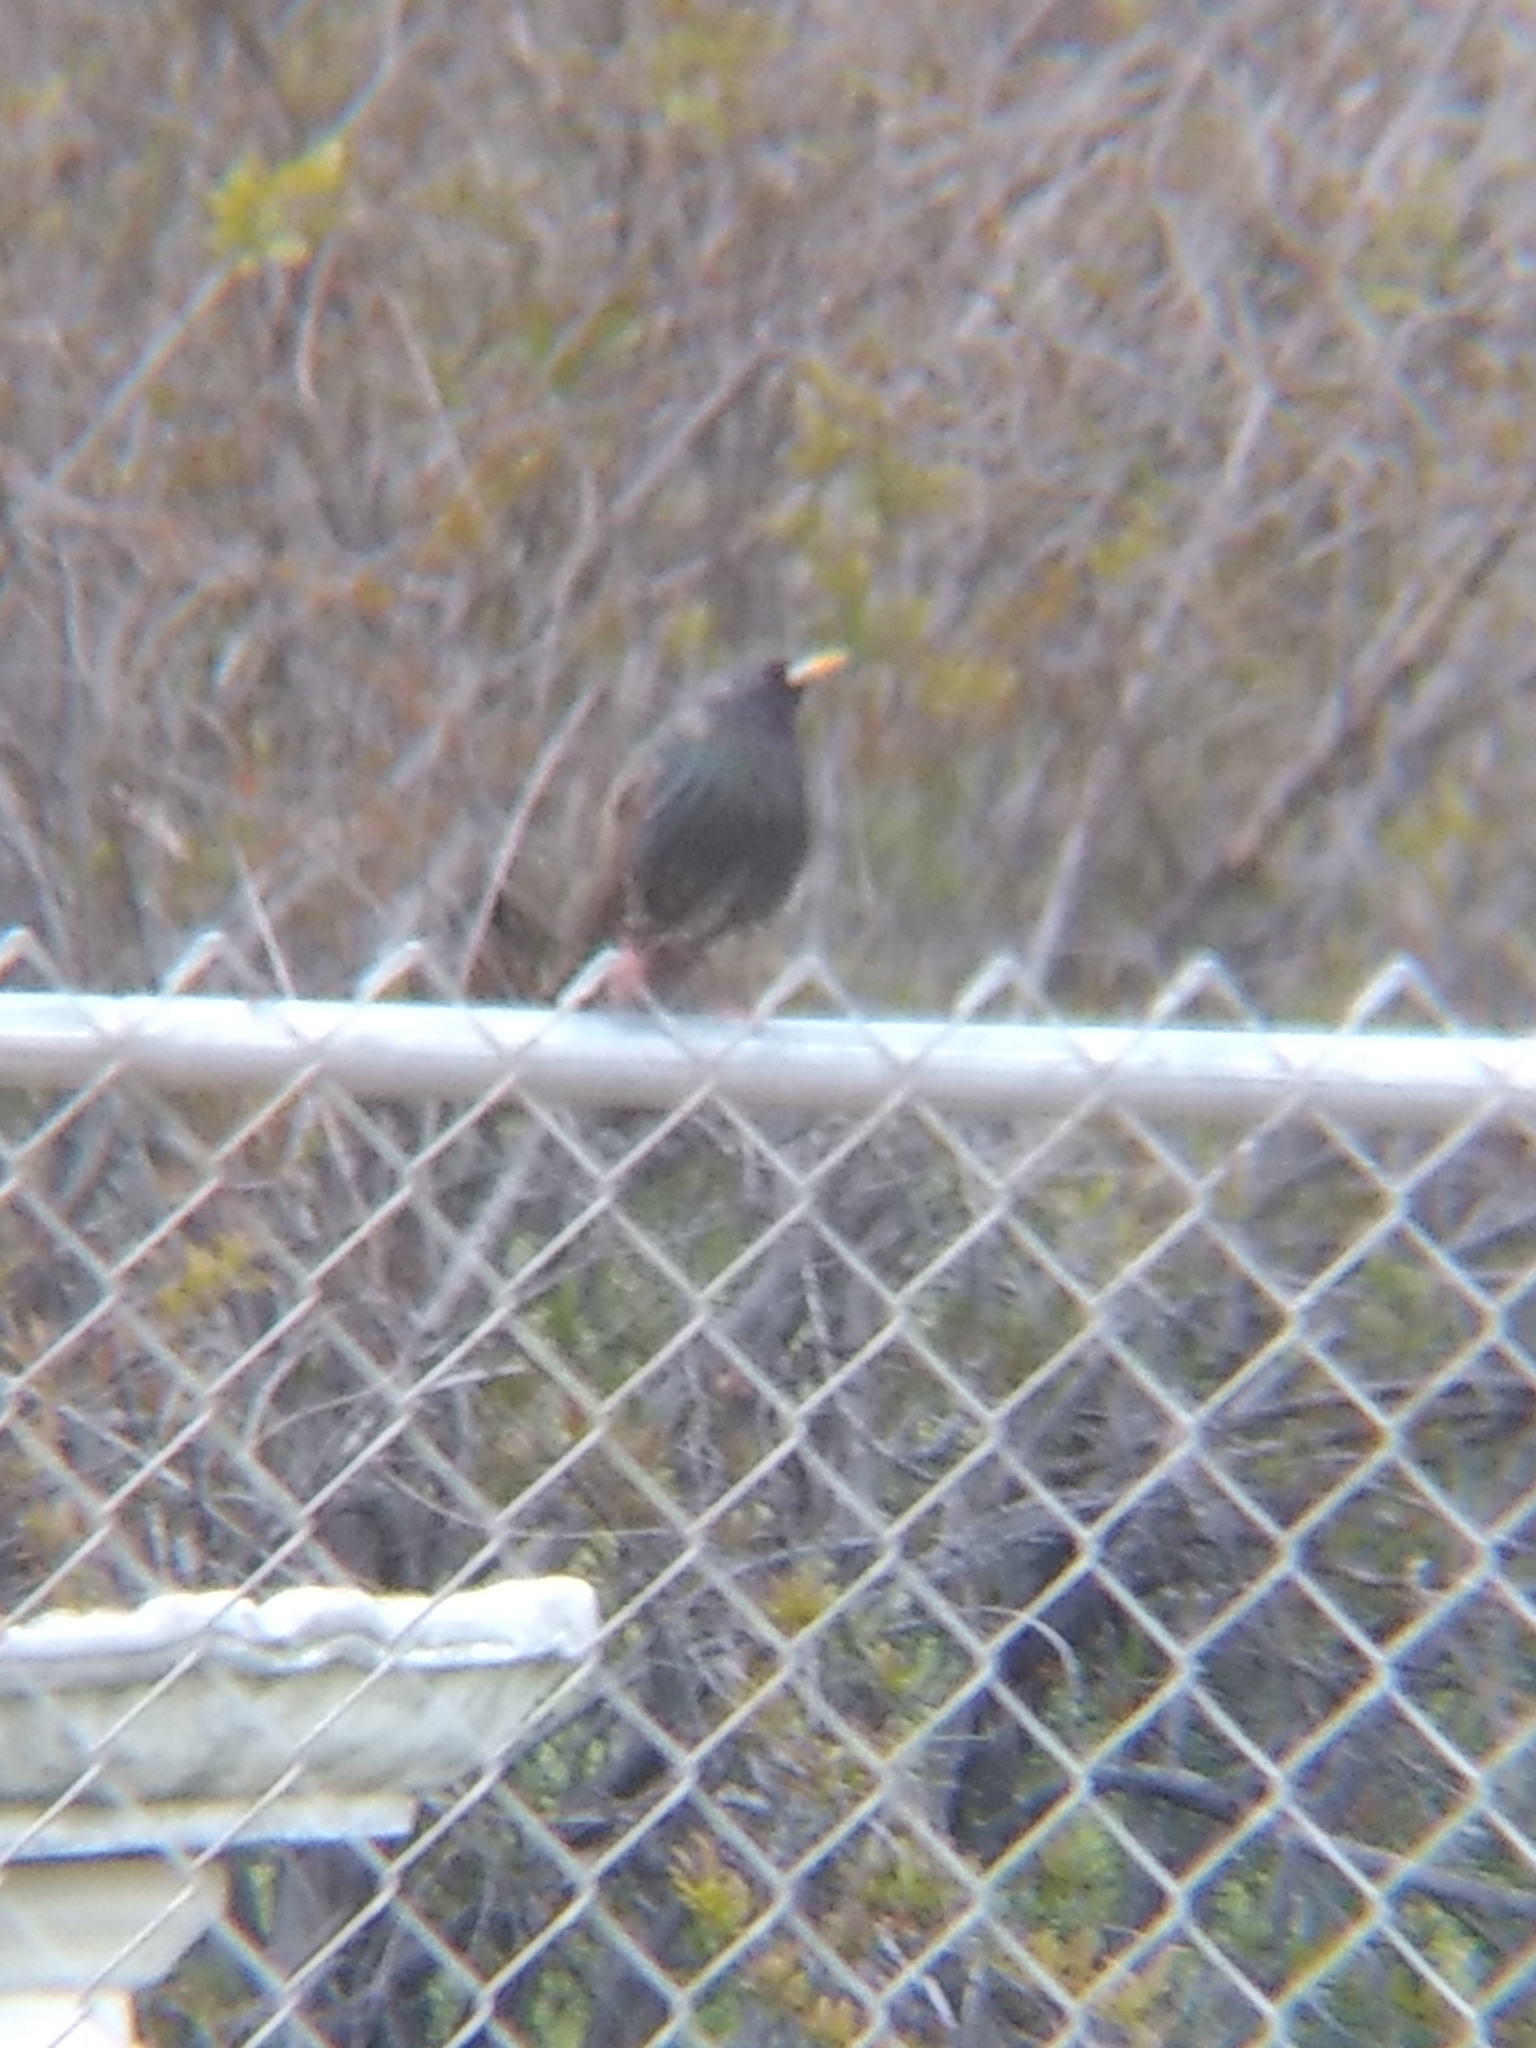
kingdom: Animalia
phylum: Chordata
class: Aves
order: Passeriformes
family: Sturnidae
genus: Sturnus
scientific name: Sturnus vulgaris
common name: Common starling
